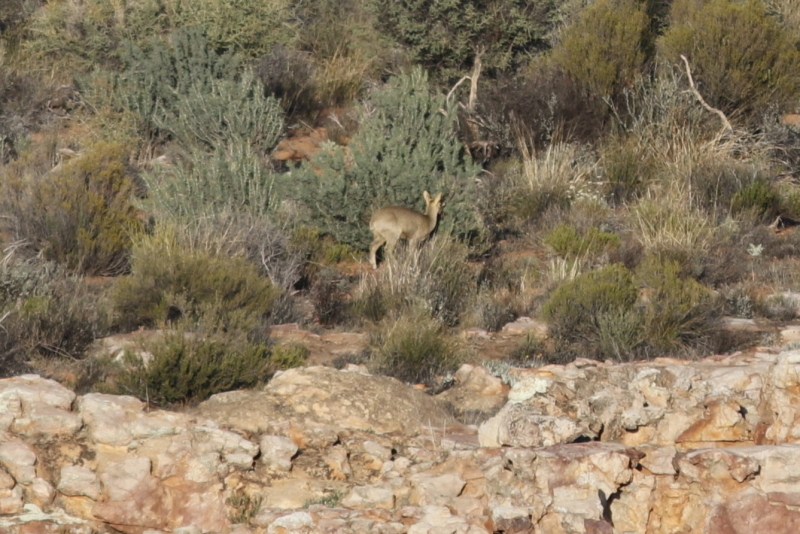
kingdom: Animalia
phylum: Chordata
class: Mammalia
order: Artiodactyla
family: Bovidae
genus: Oreotragus
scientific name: Oreotragus oreotragus
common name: Klipspringer
